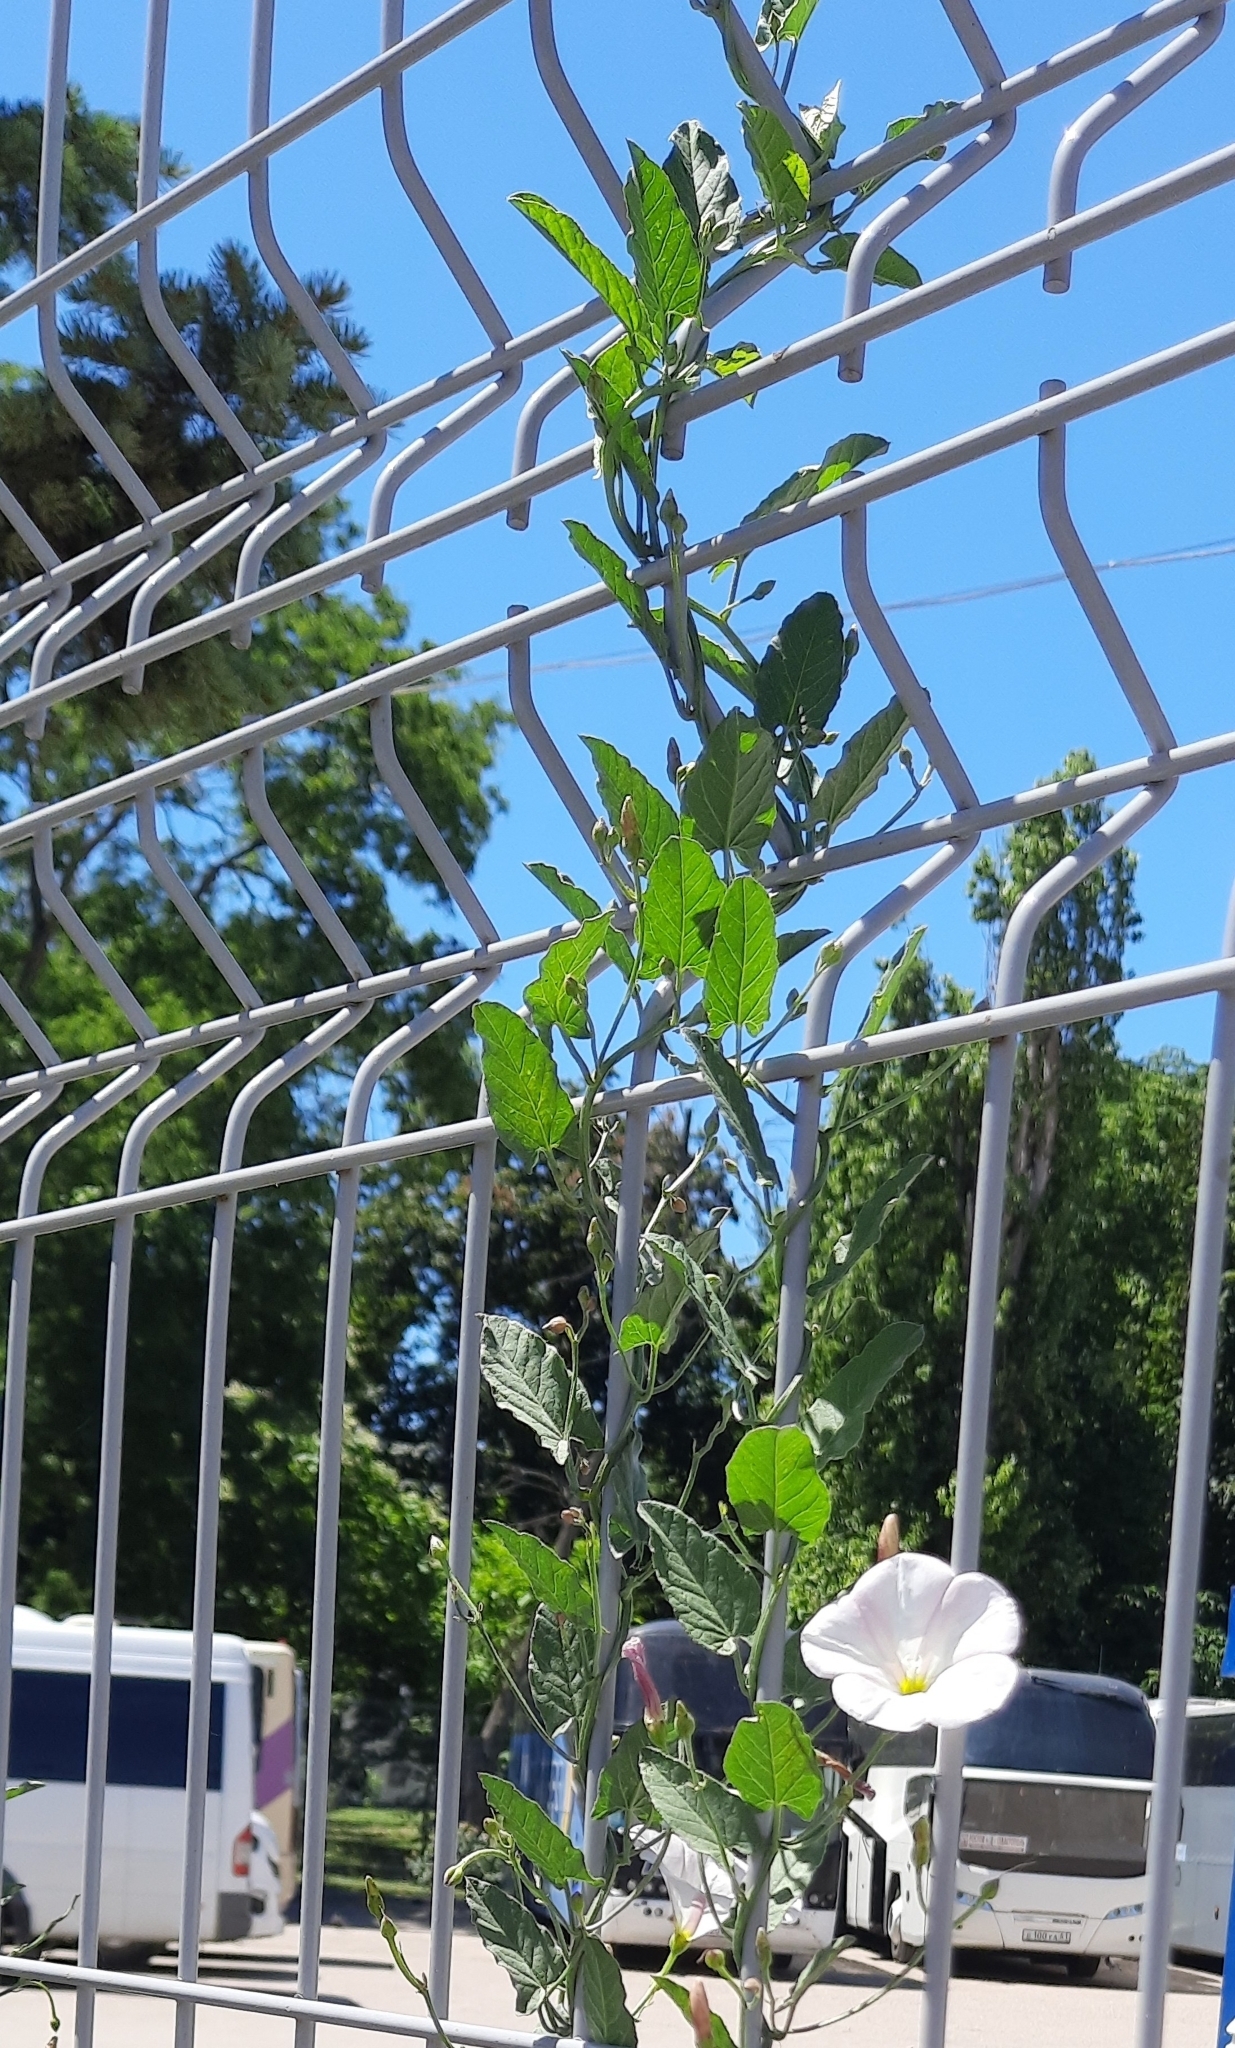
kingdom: Plantae
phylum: Tracheophyta
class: Magnoliopsida
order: Solanales
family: Convolvulaceae
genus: Convolvulus
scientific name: Convolvulus arvensis
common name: Field bindweed
